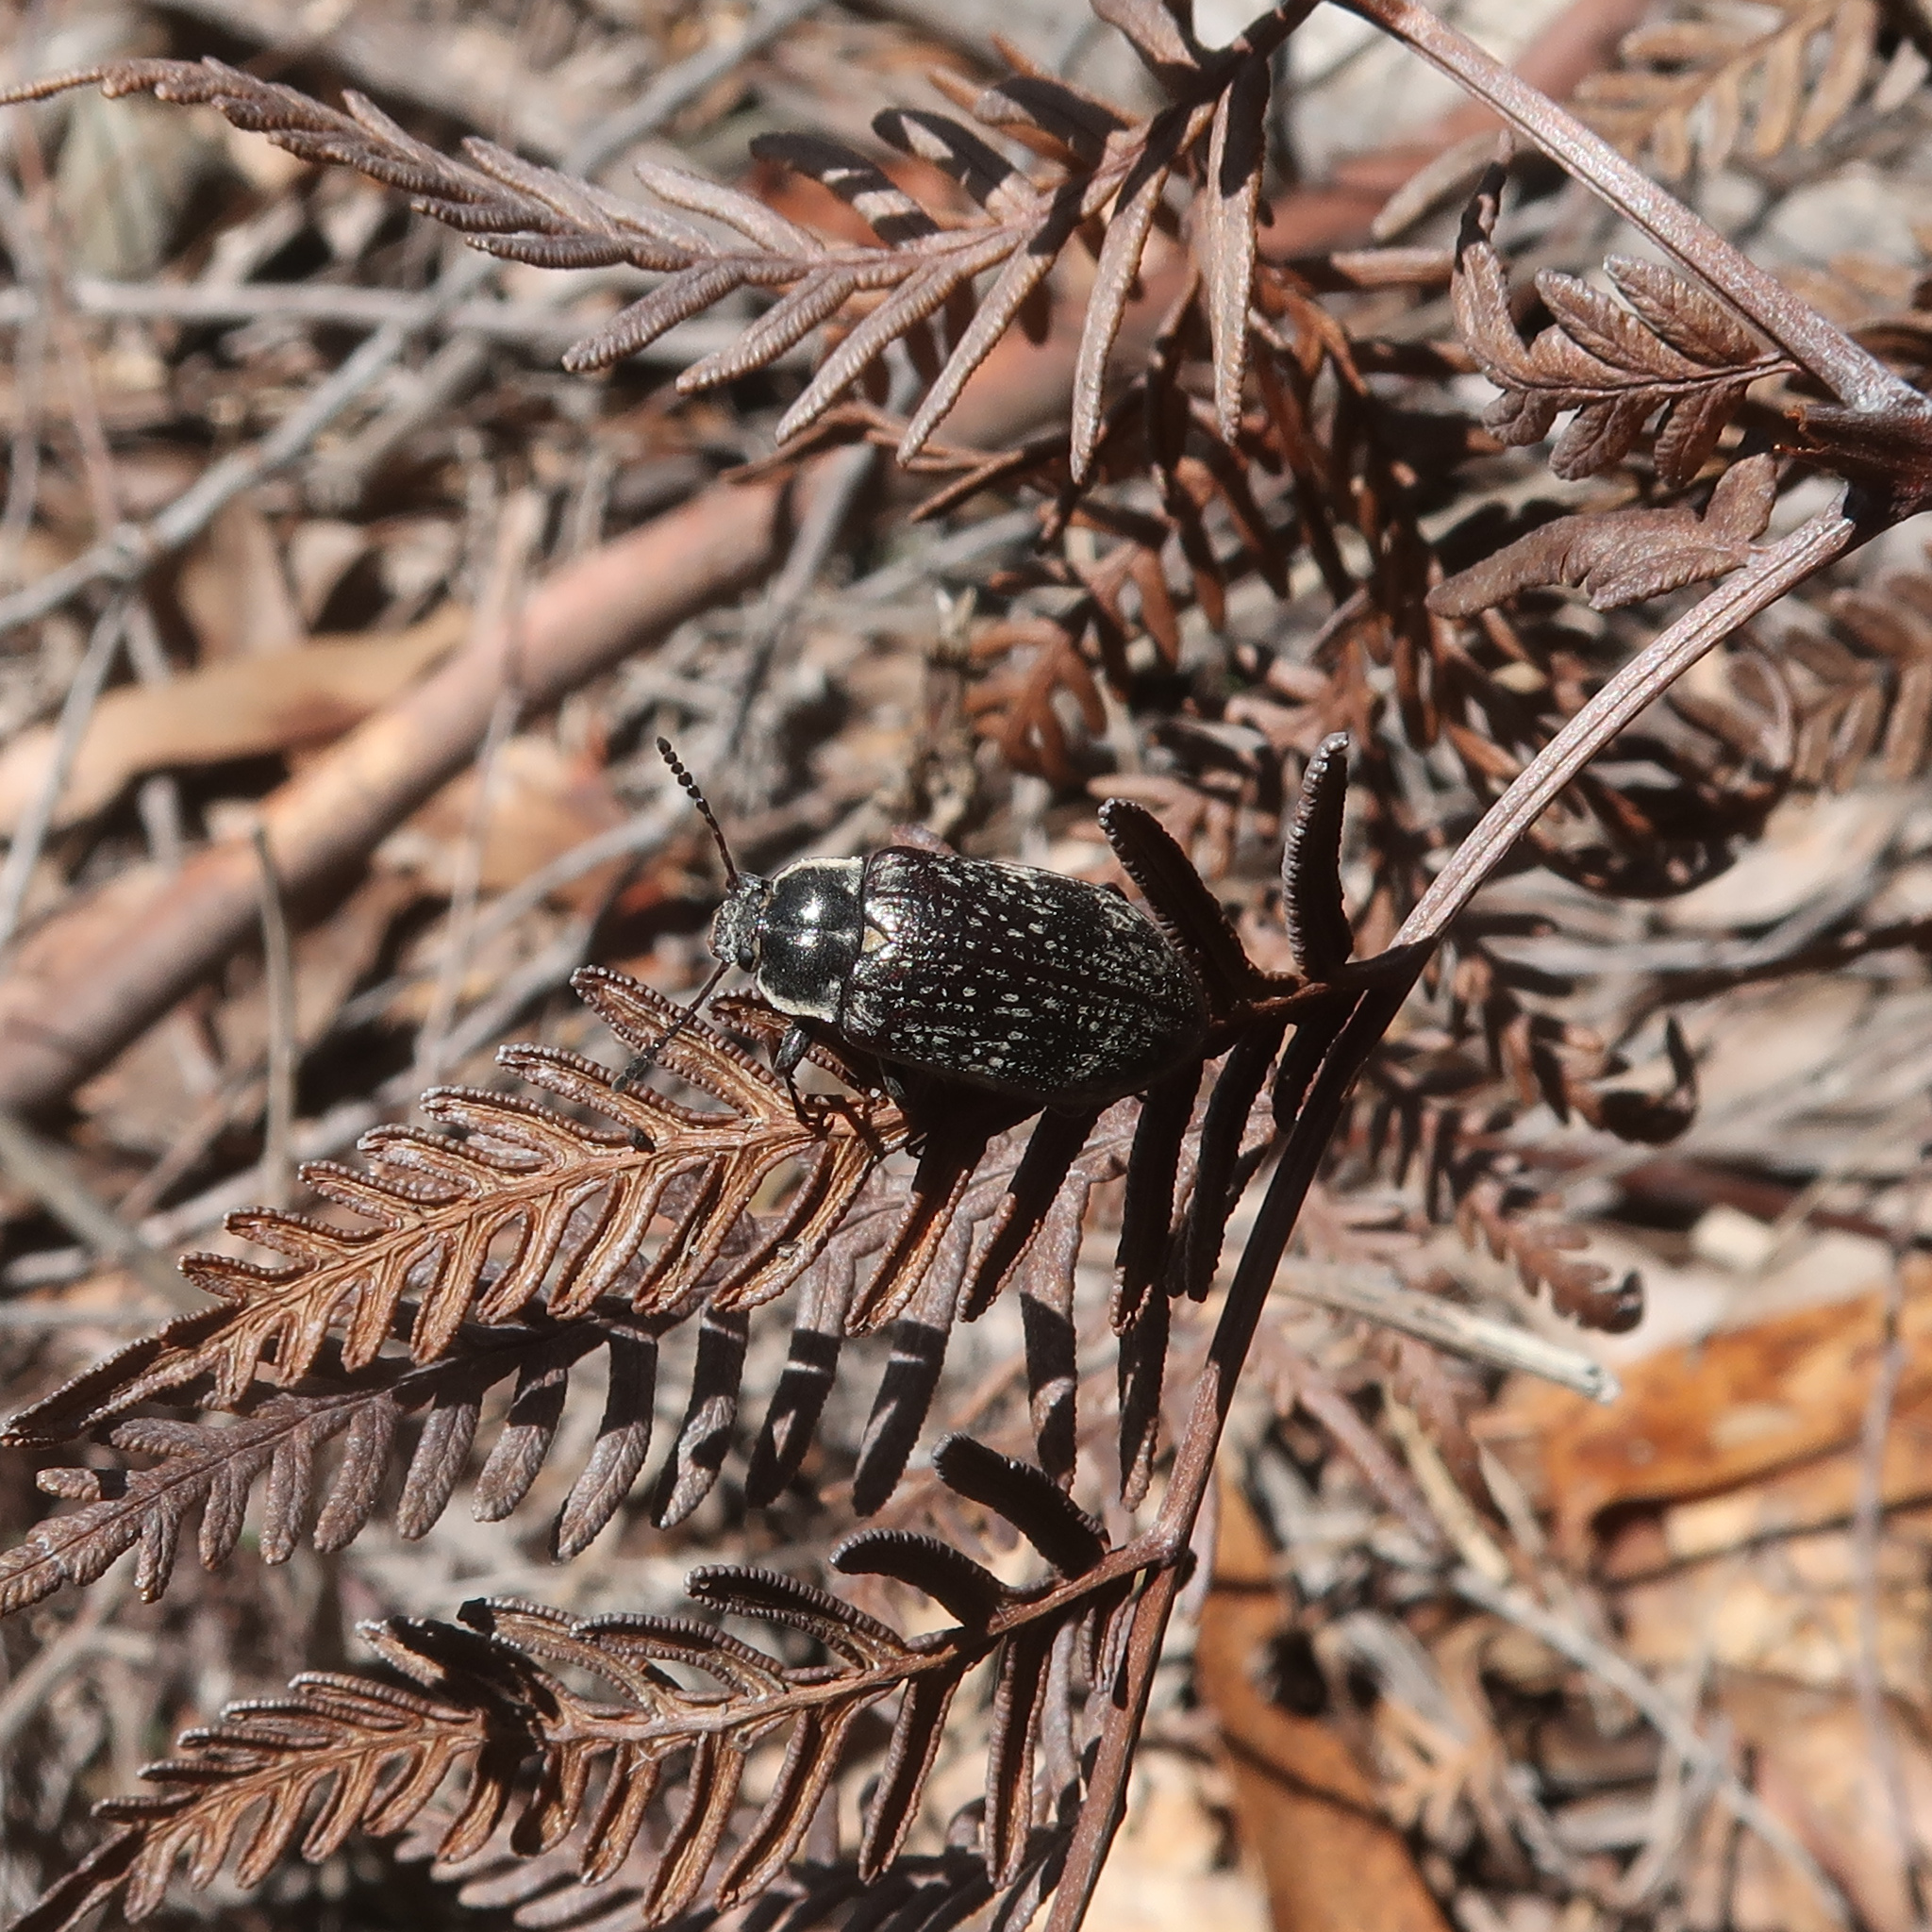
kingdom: Animalia
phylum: Arthropoda
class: Insecta
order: Coleoptera
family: Tenebrionidae
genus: Pachycoelia
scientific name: Pachycoelia
